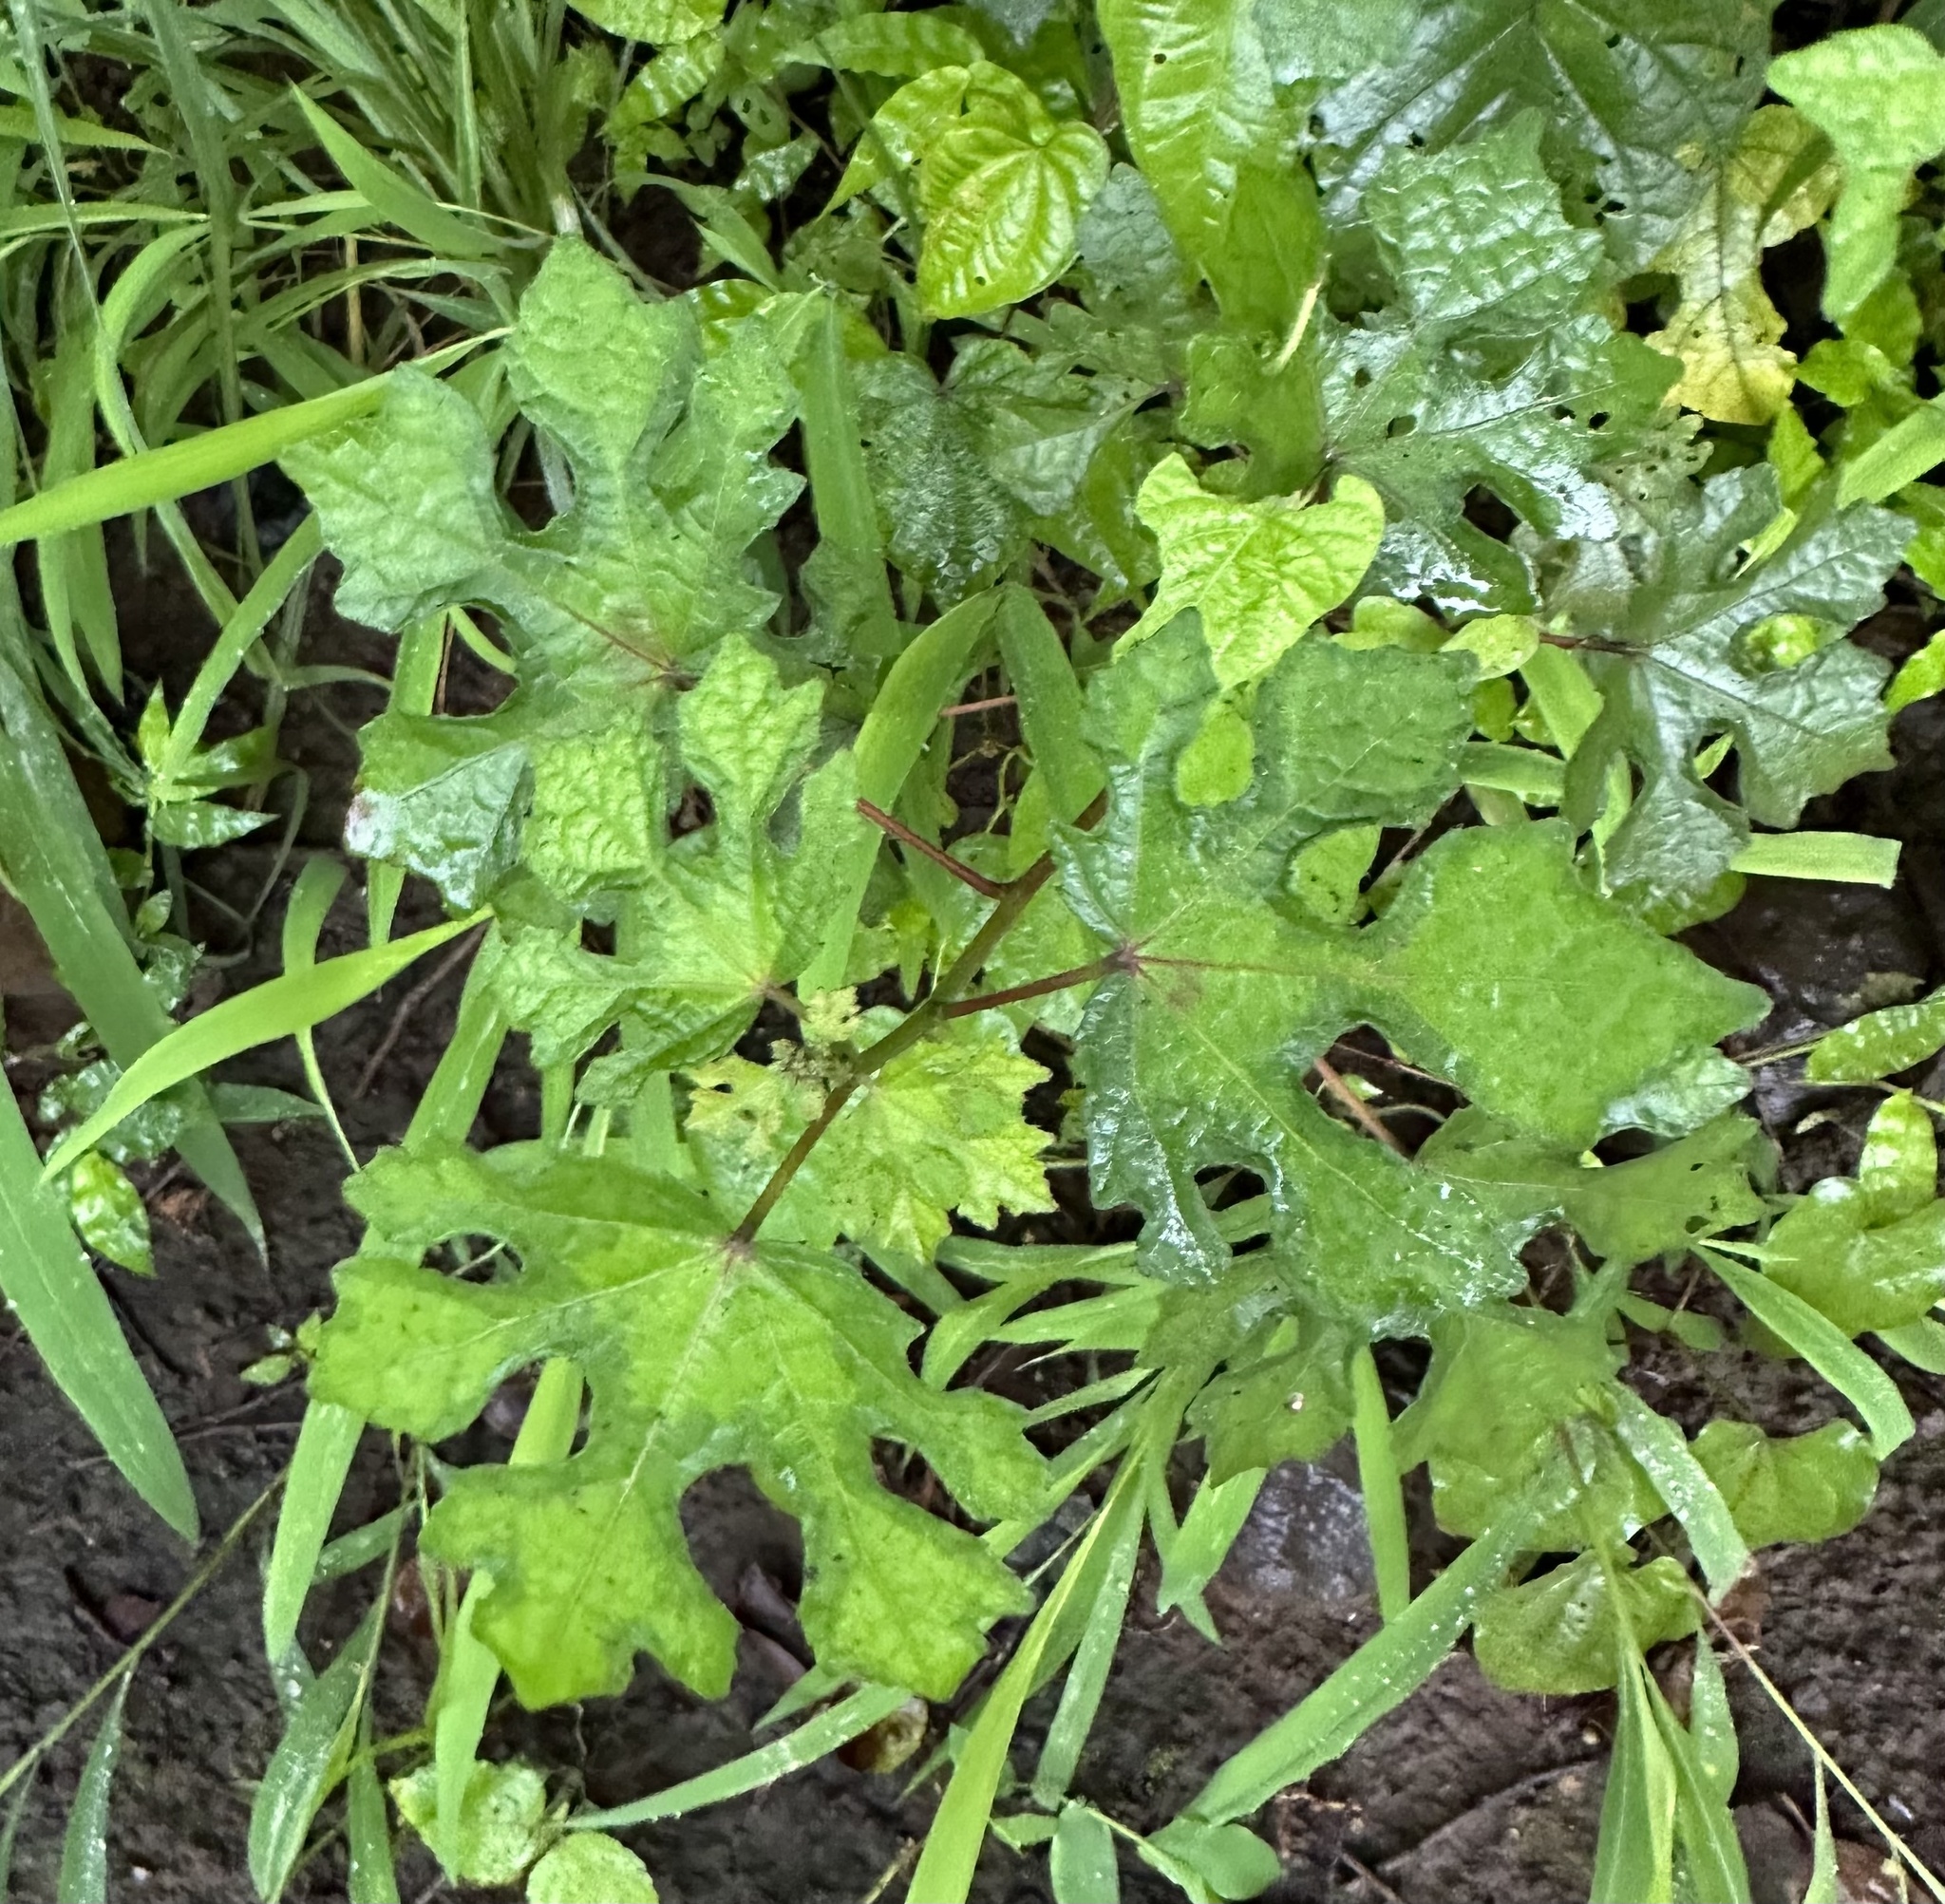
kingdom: Plantae
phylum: Tracheophyta
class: Magnoliopsida
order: Malvales
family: Malvaceae
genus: Urena
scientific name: Urena procumbens
